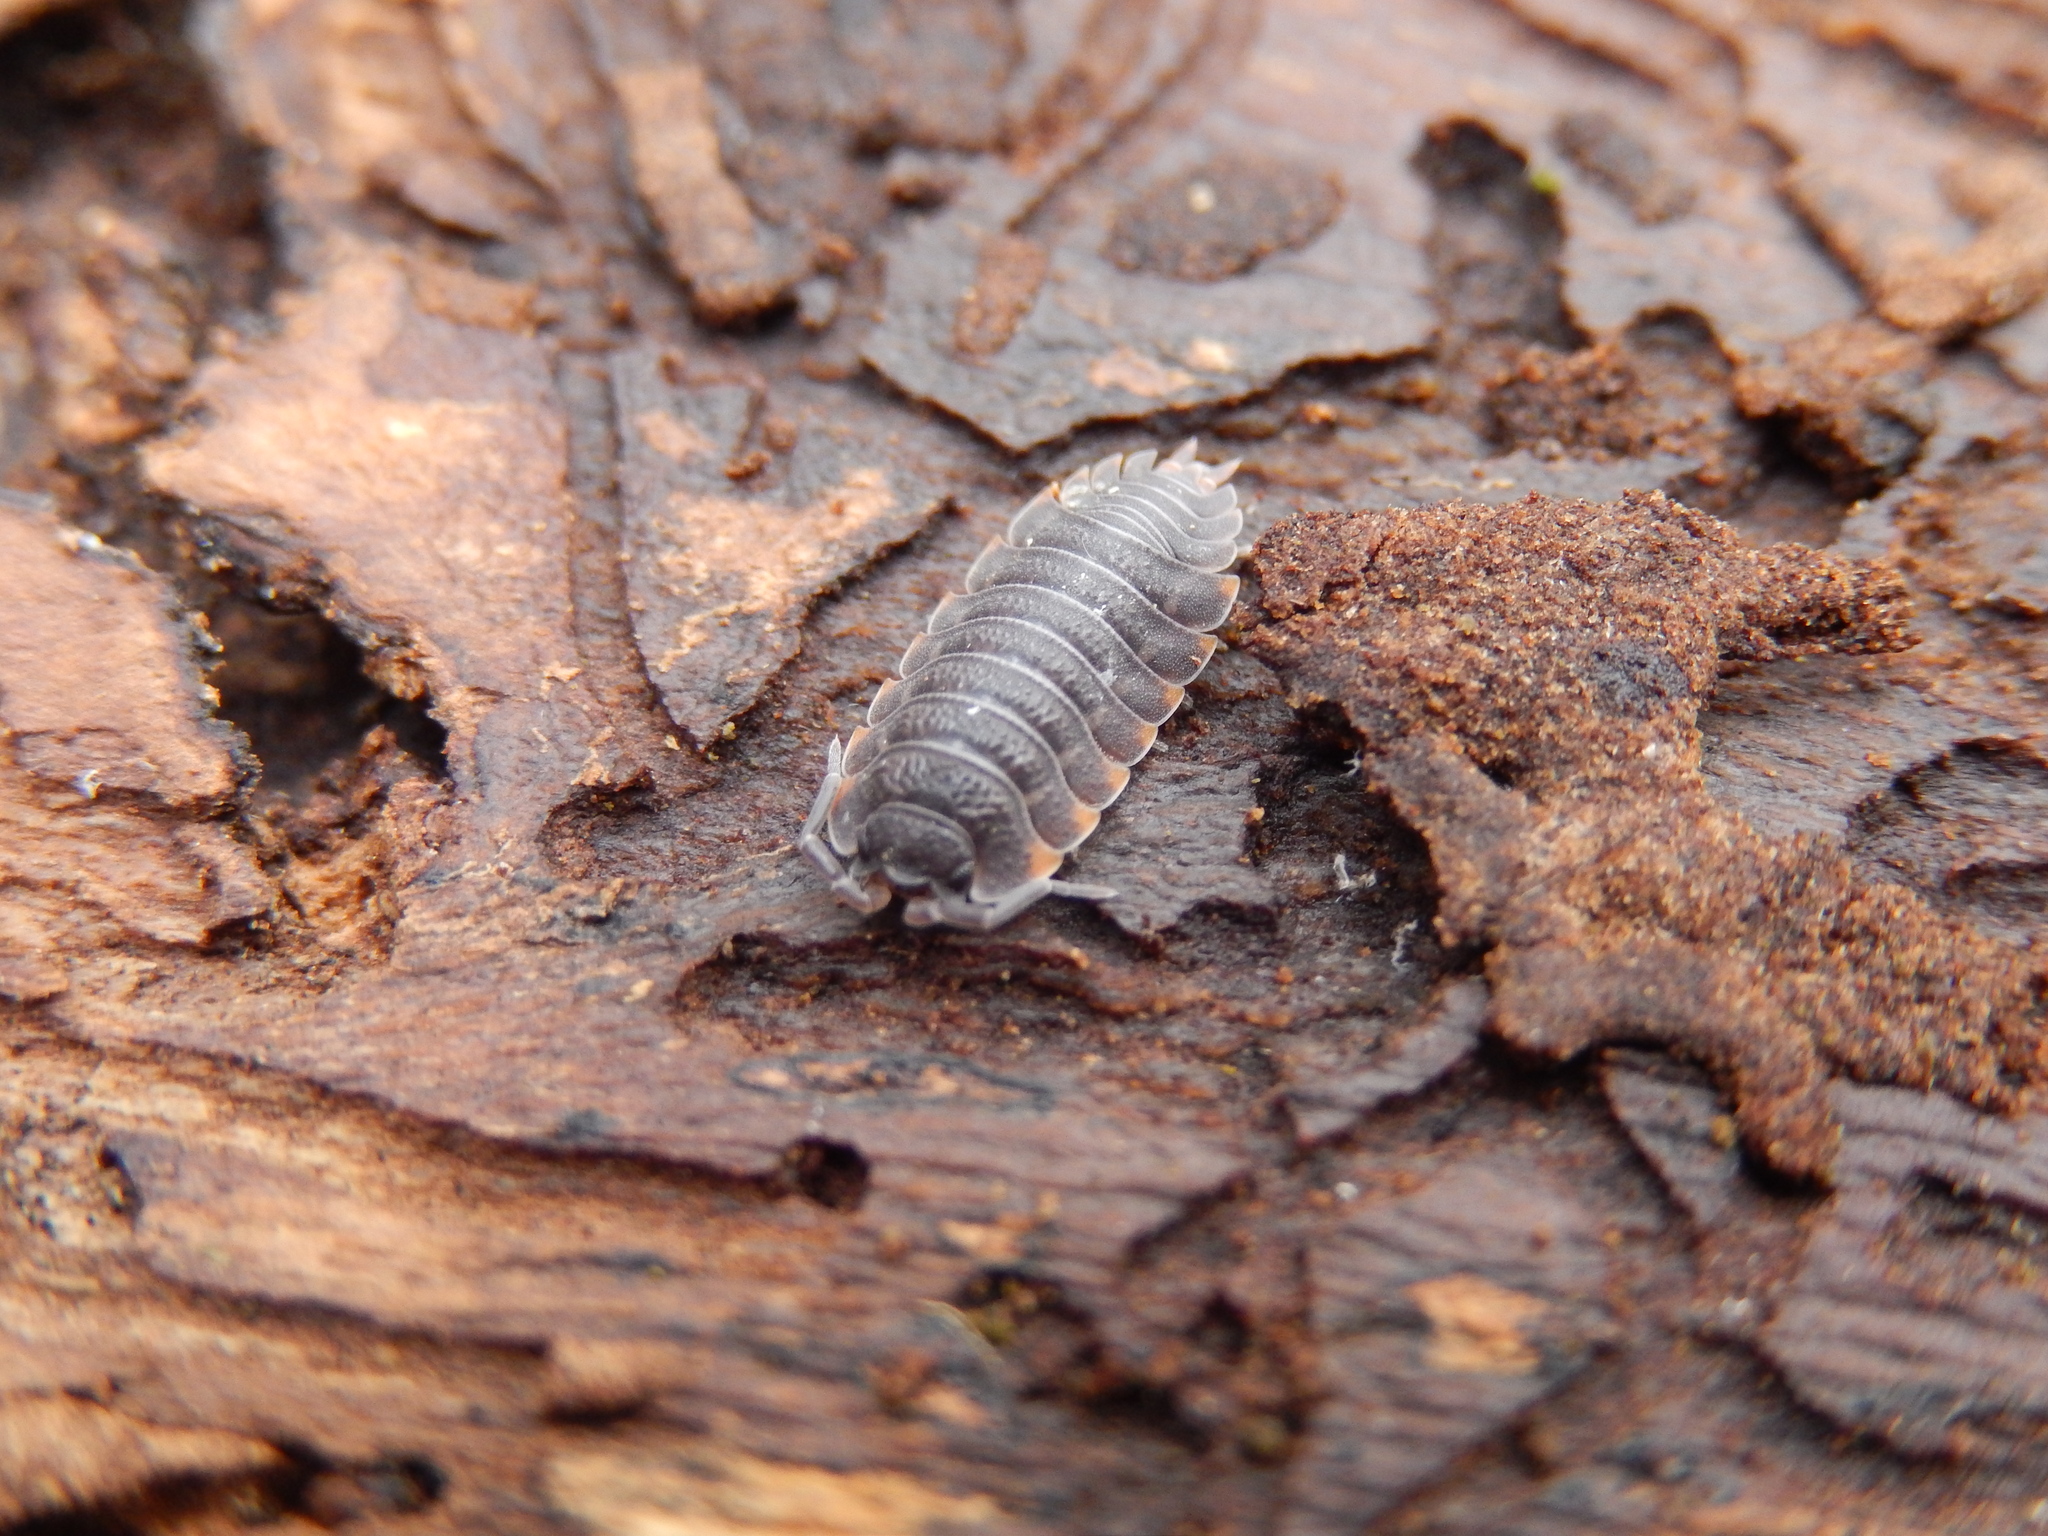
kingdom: Animalia
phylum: Arthropoda
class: Malacostraca
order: Isopoda
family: Trachelipodidae
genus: Trachelipus
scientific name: Trachelipus ratzeburgii
